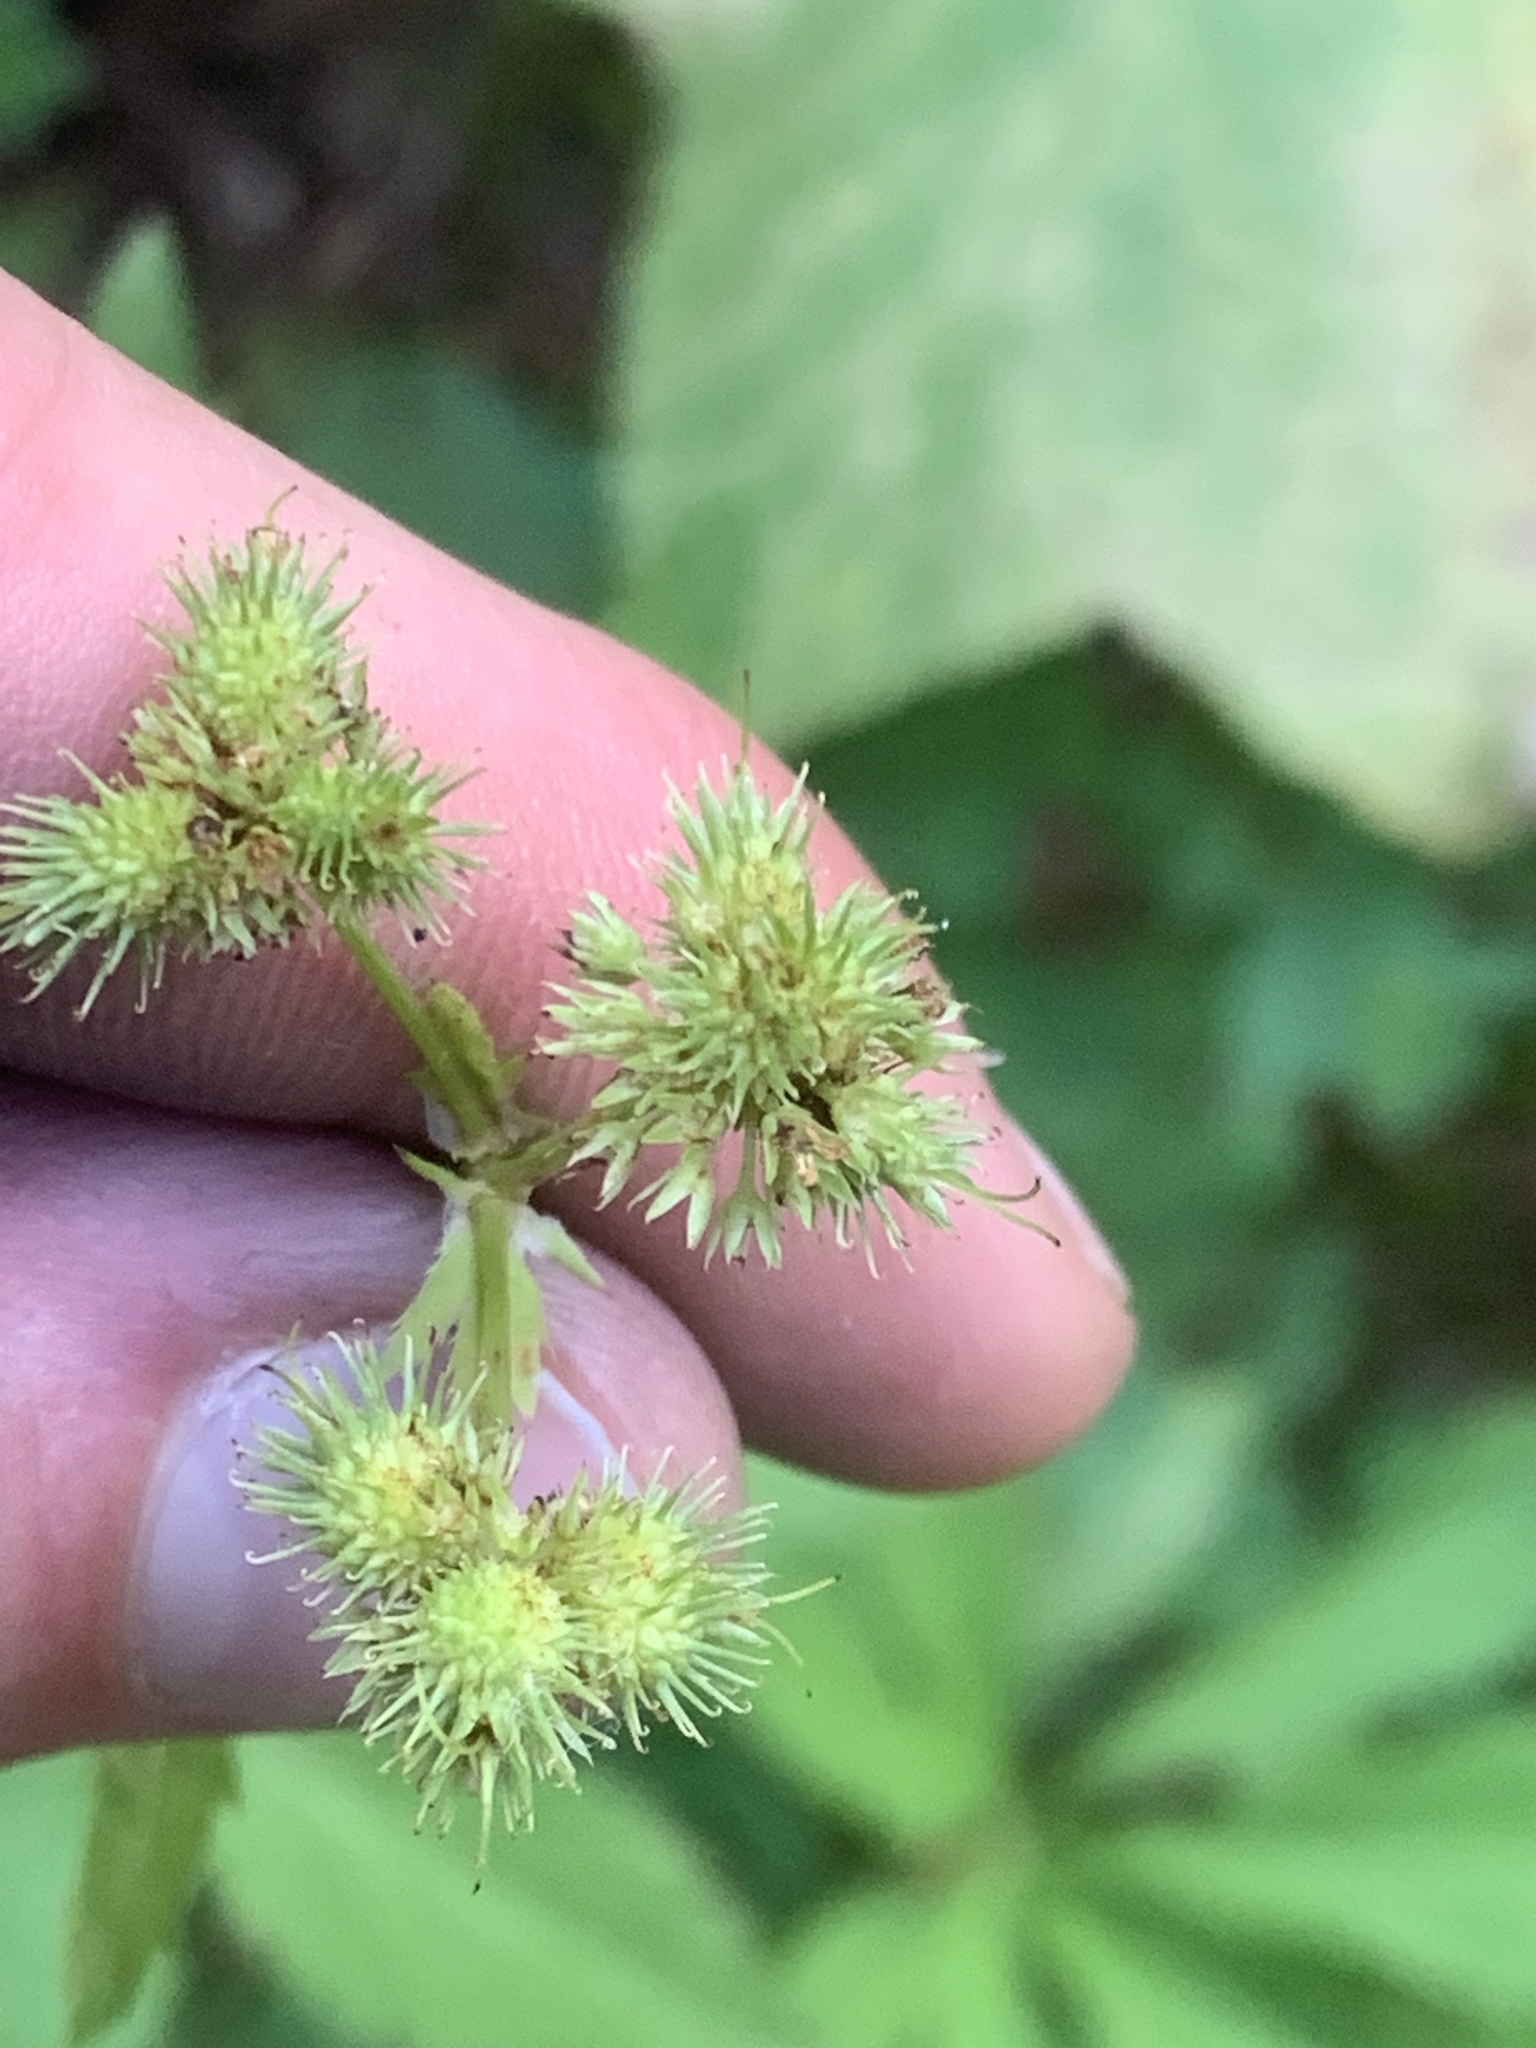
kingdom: Plantae
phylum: Tracheophyta
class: Magnoliopsida
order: Apiales
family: Apiaceae
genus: Sanicula
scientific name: Sanicula marilandica
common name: Black snakeroot
